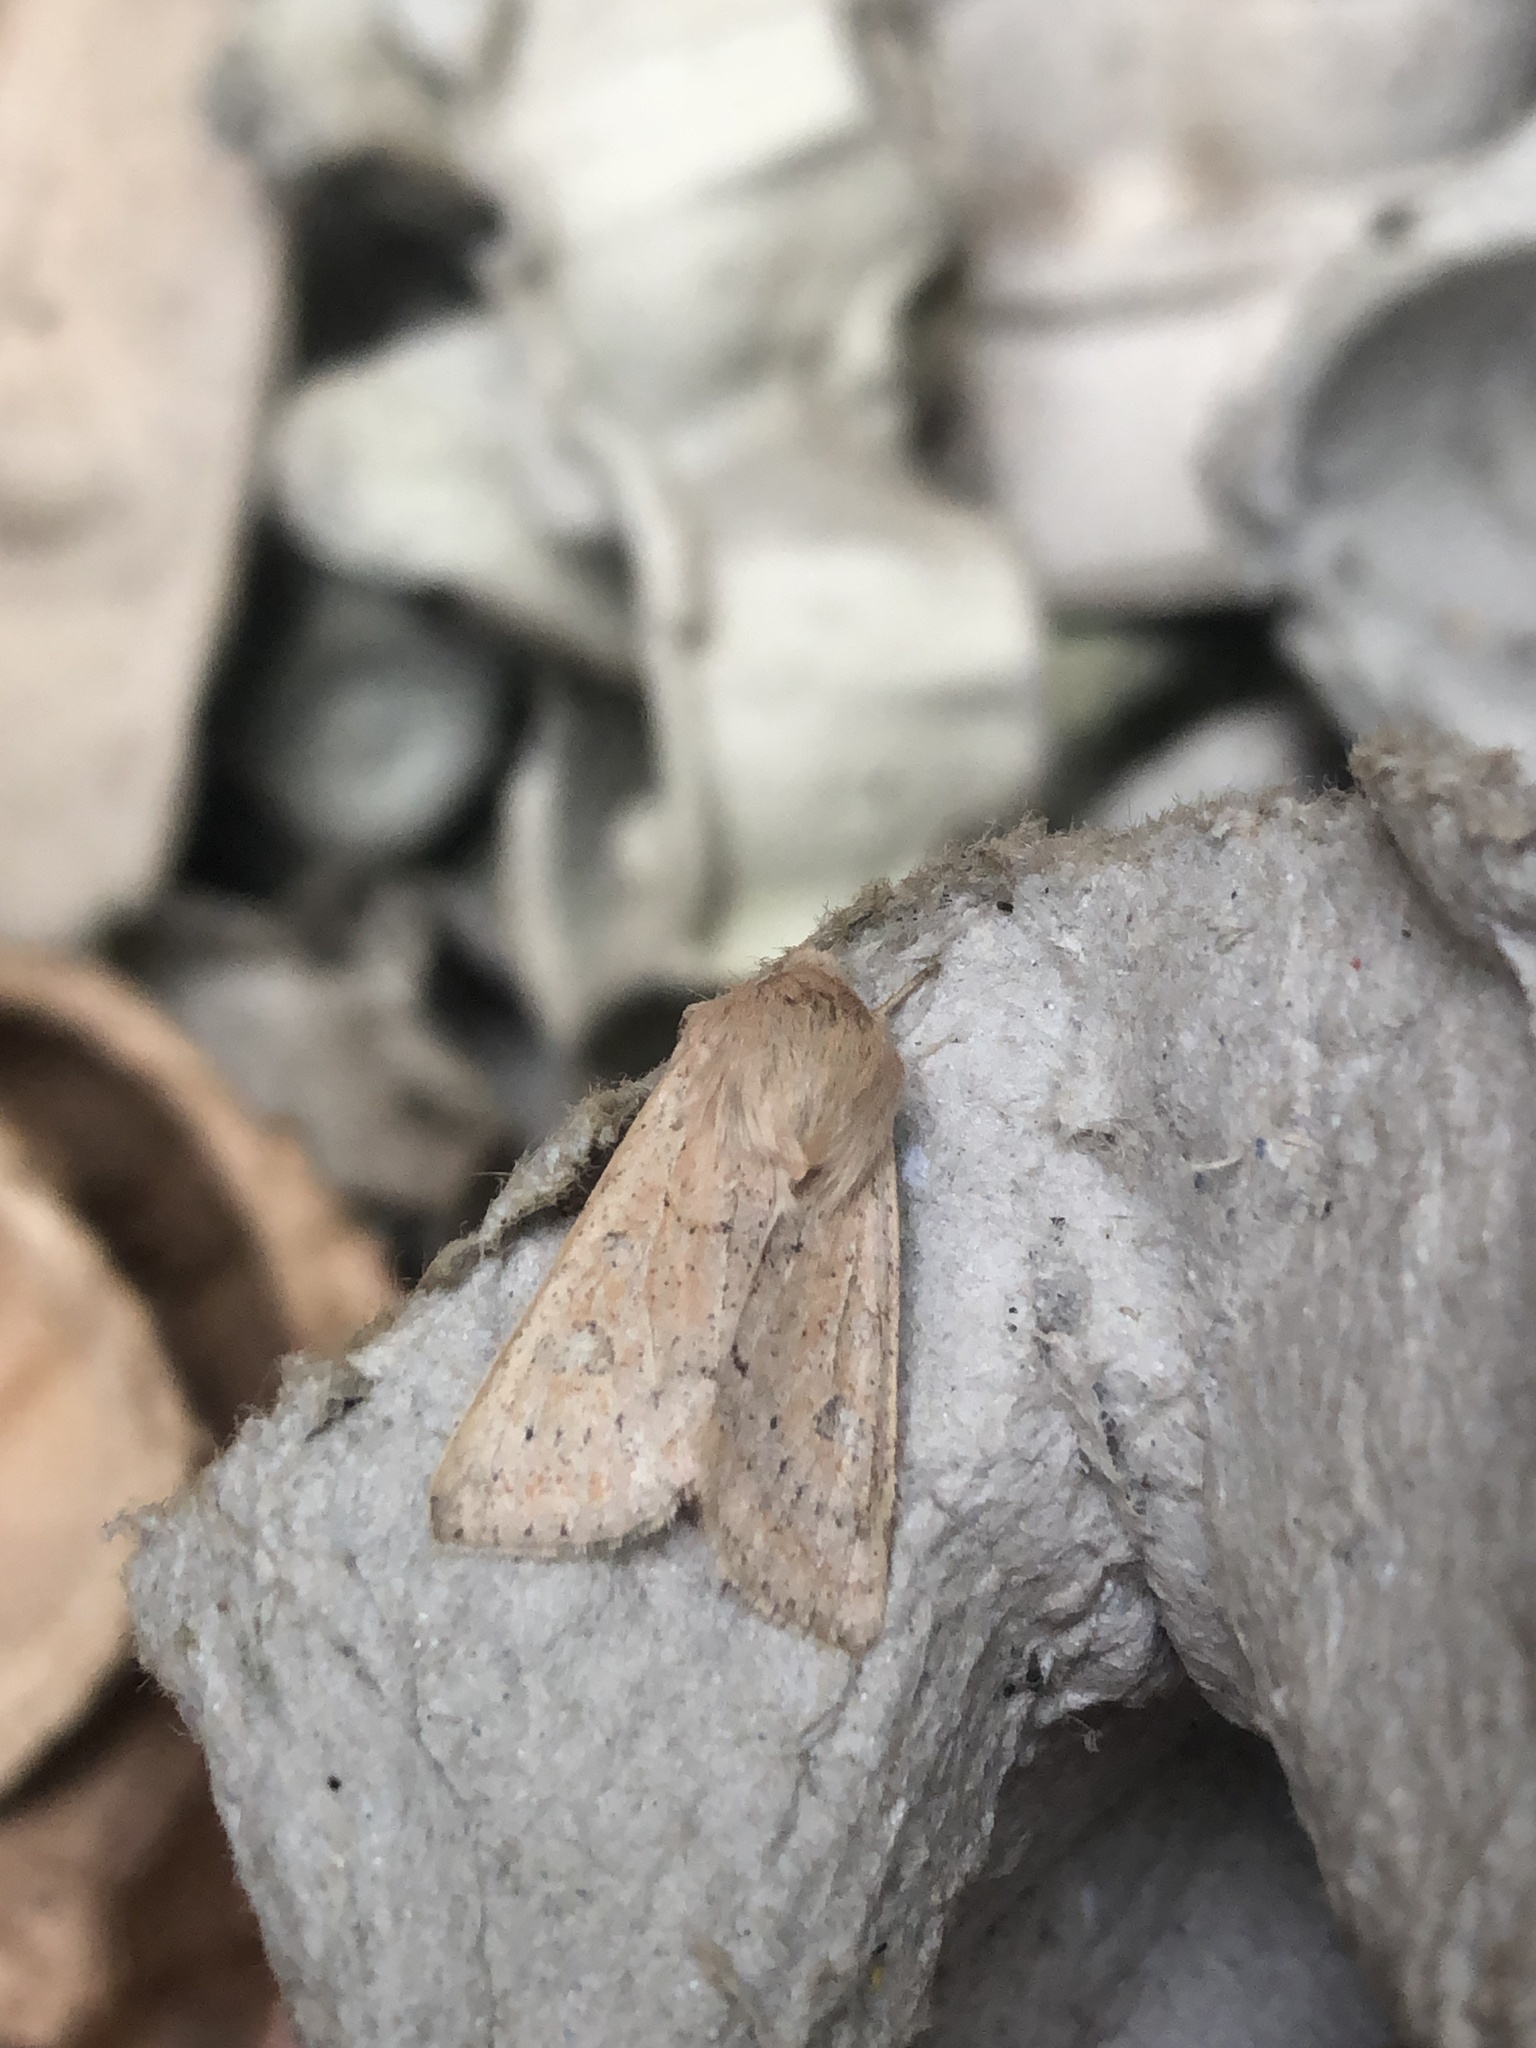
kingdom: Animalia
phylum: Arthropoda
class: Insecta
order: Lepidoptera
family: Noctuidae
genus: Orthosia
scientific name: Orthosia gracilis
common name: Powdered quaker
